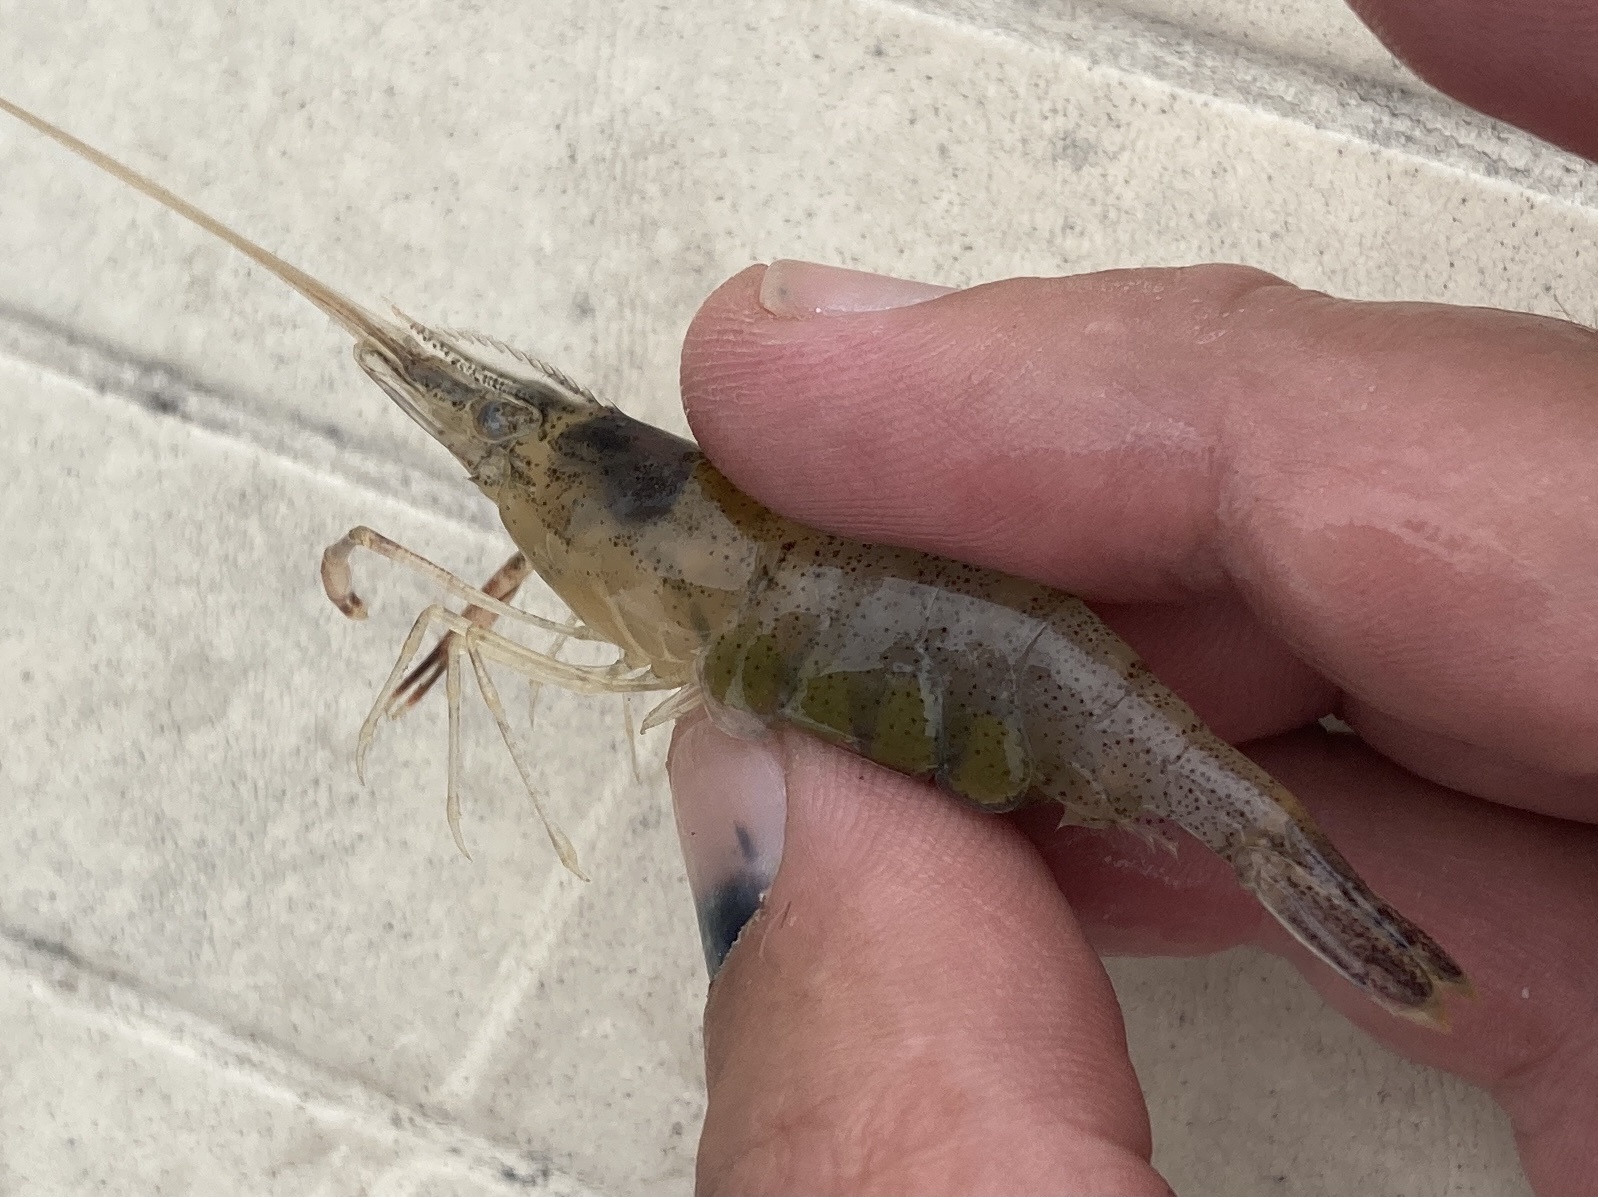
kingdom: Animalia
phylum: Arthropoda
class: Malacostraca
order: Decapoda
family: Palaemonidae
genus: Macrobrachium
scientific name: Macrobrachium ohione
